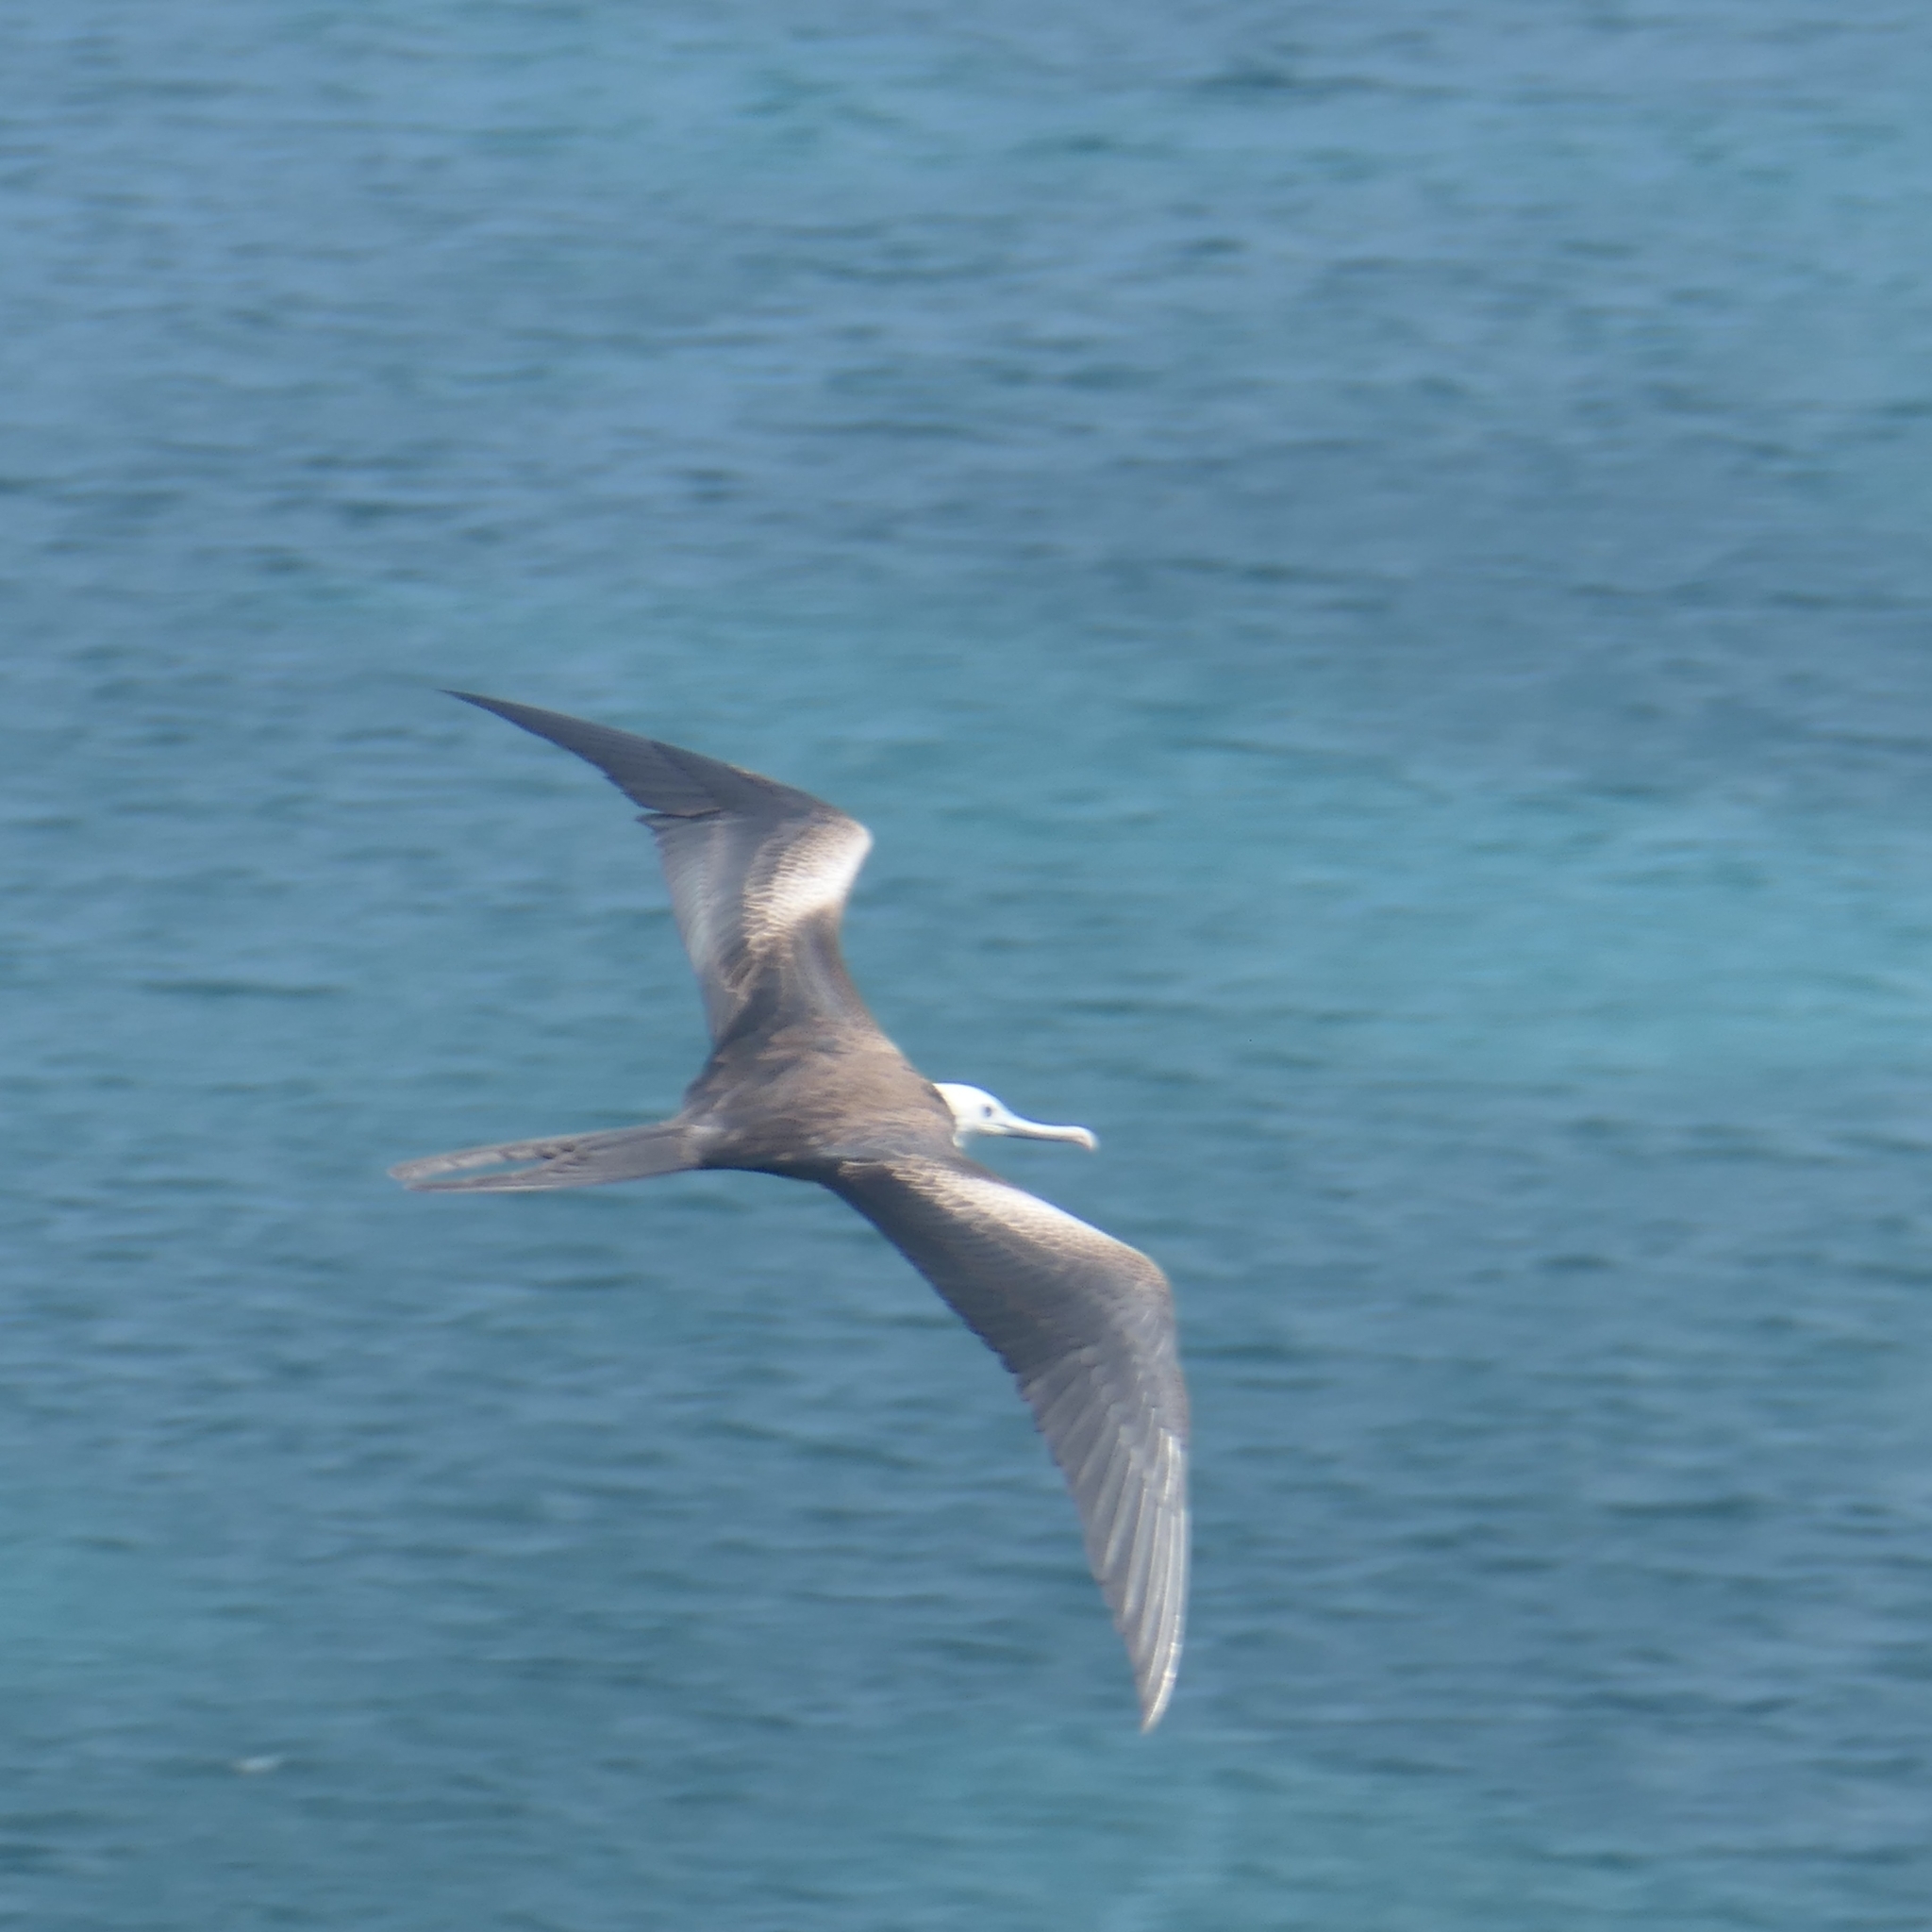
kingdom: Animalia
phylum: Chordata
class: Aves
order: Suliformes
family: Fregatidae
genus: Fregata
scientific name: Fregata magnificens
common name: Magnificent frigatebird
